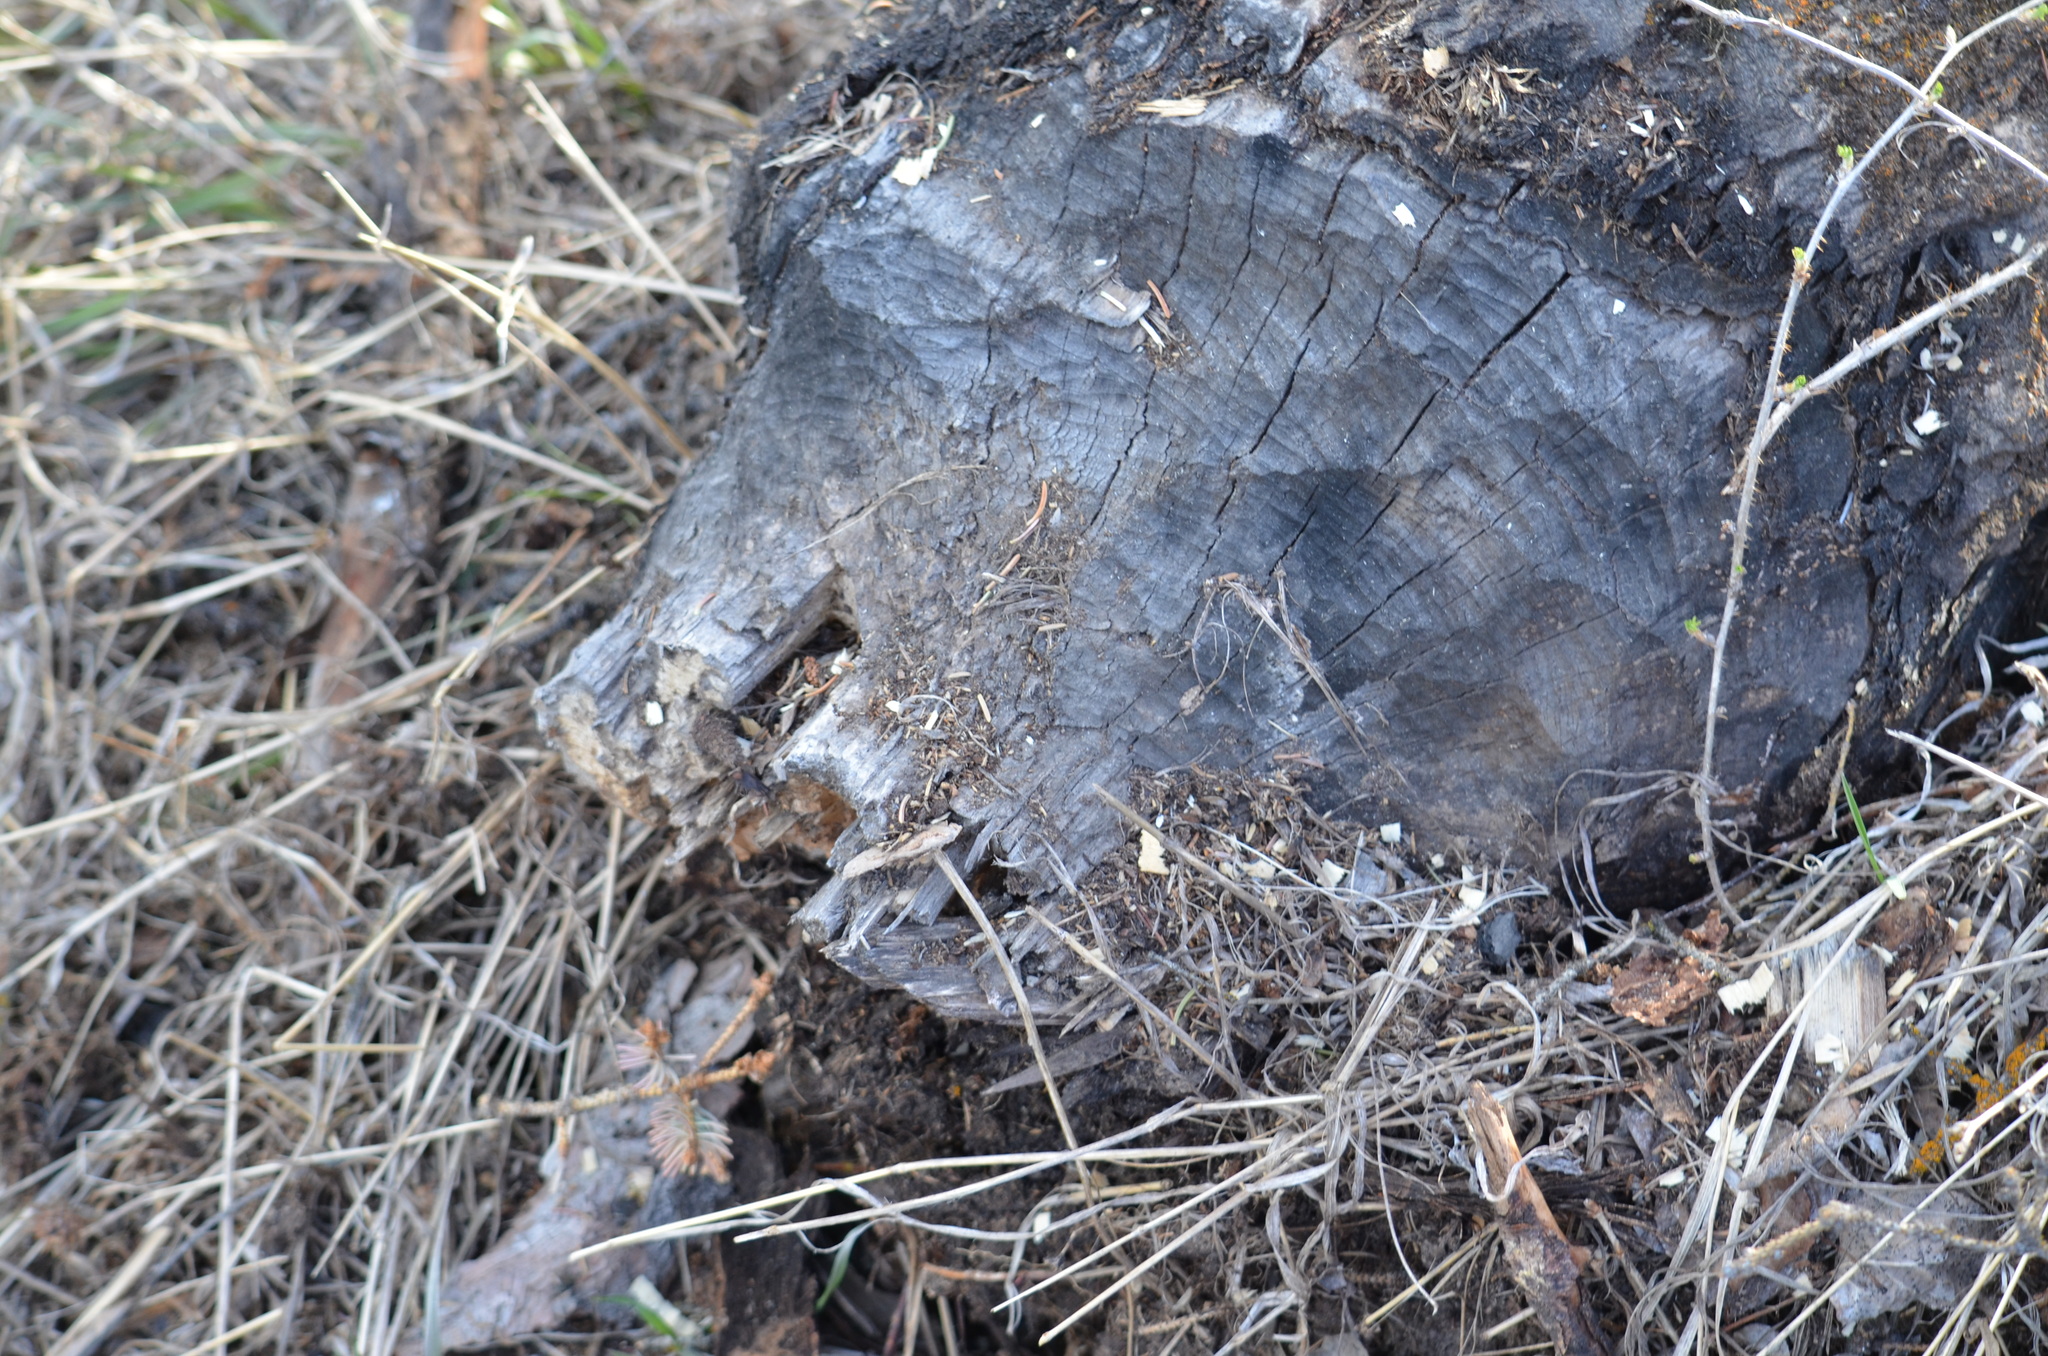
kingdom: Animalia
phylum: Chordata
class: Mammalia
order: Rodentia
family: Castoridae
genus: Castor
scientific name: Castor canadensis
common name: American beaver
